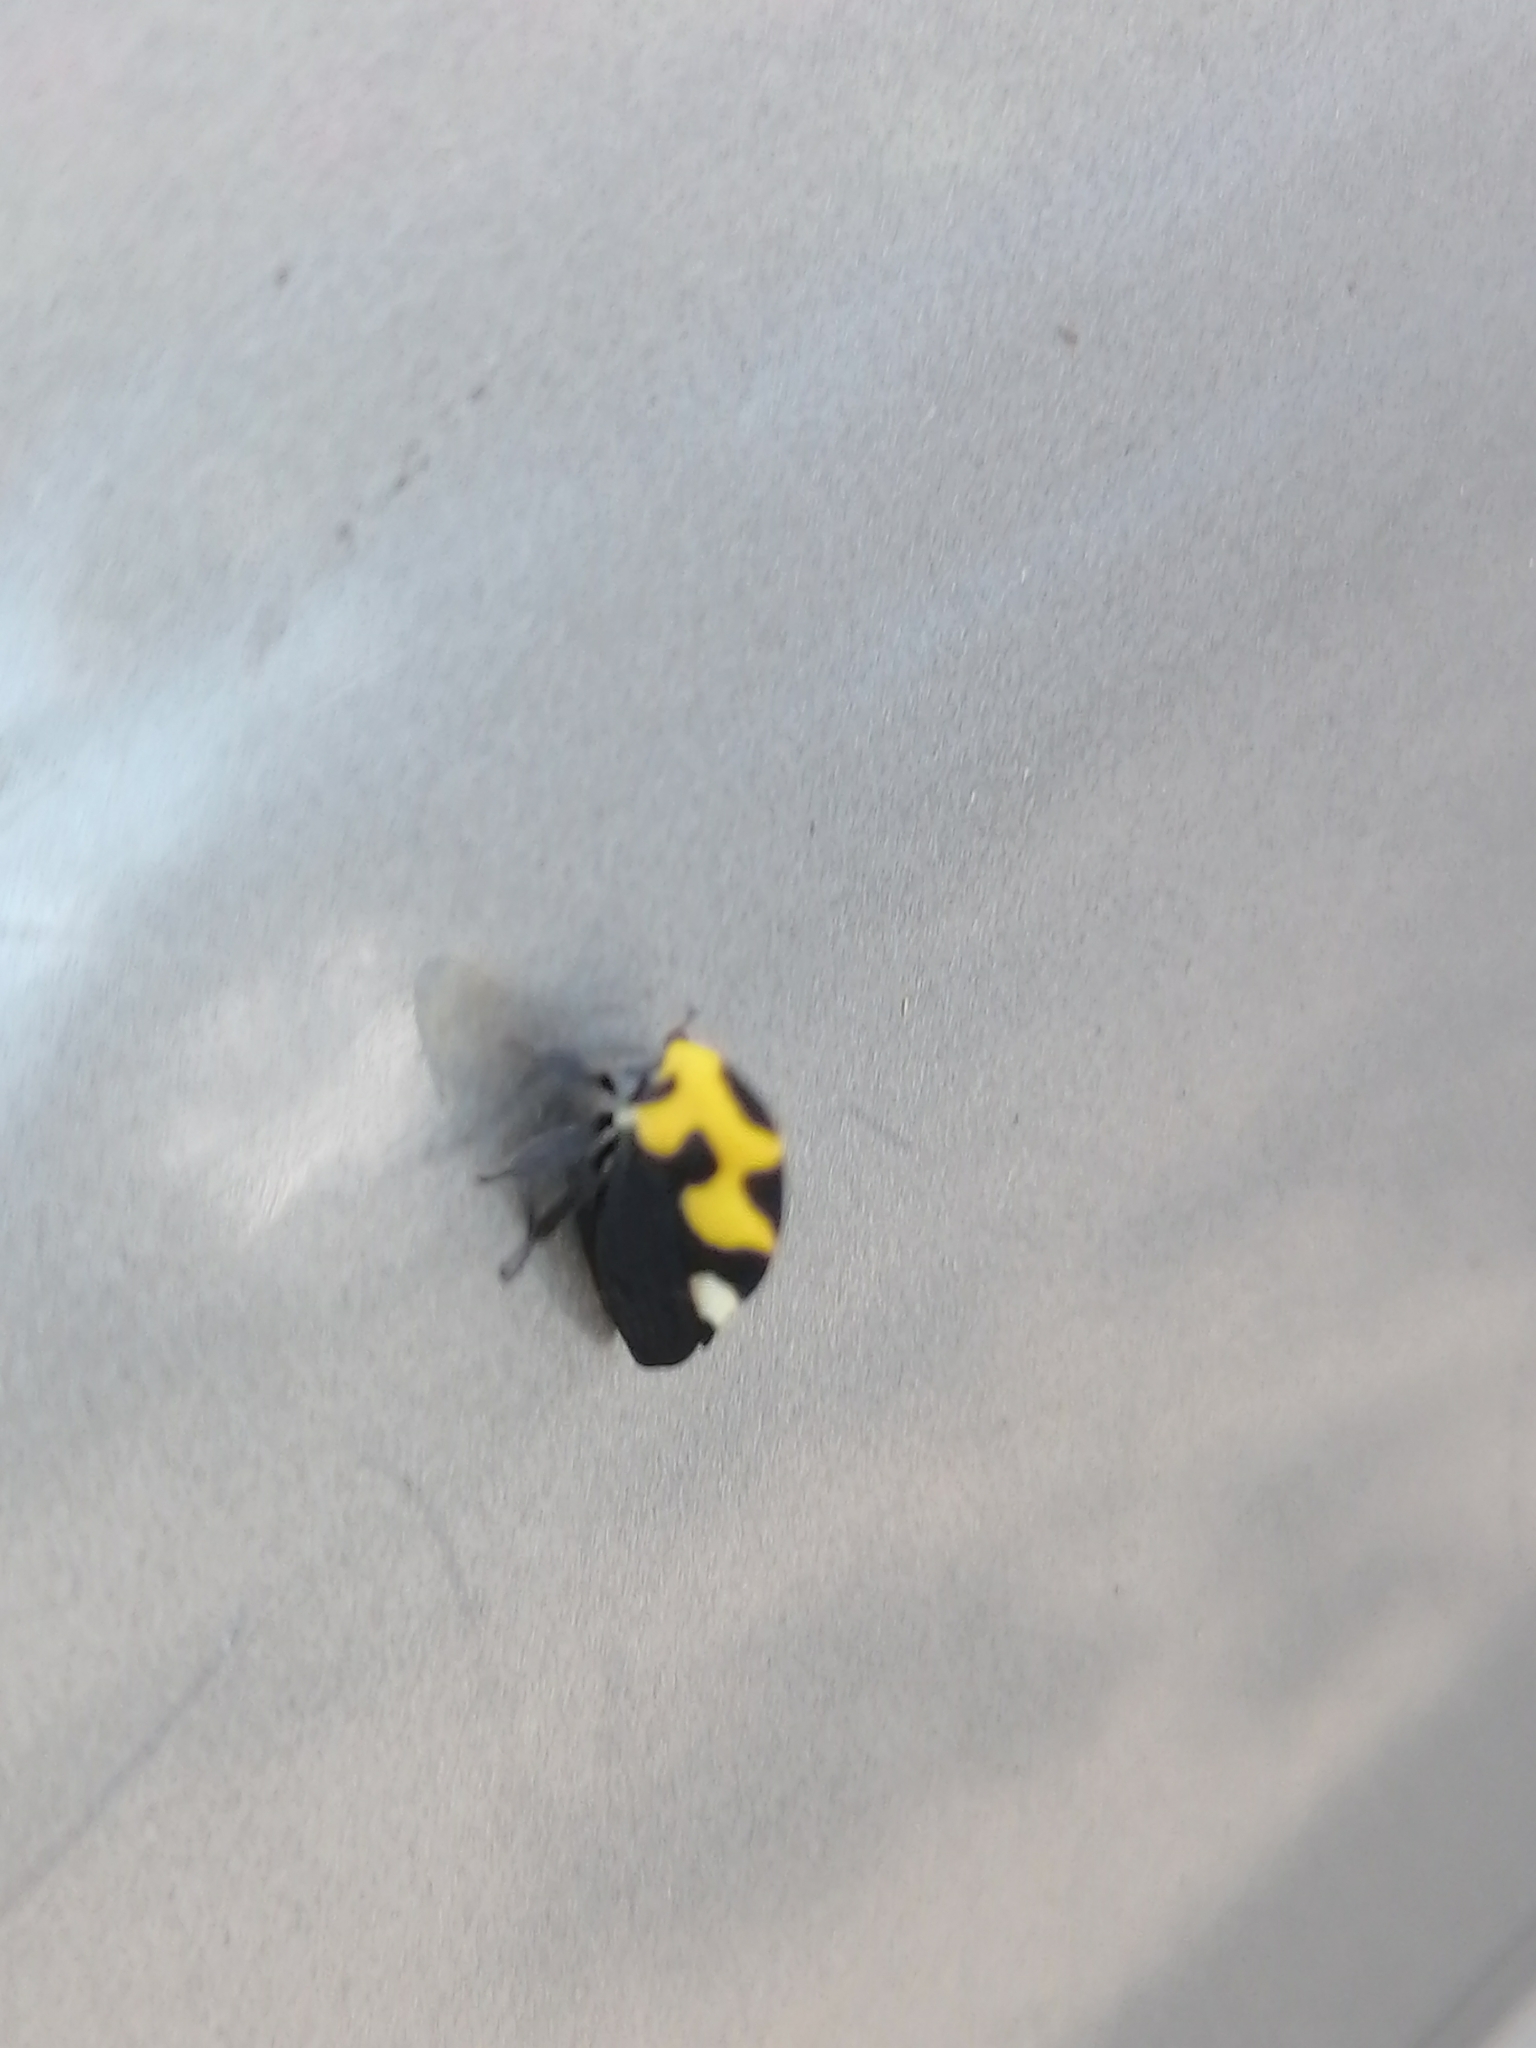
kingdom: Animalia
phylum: Arthropoda
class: Insecta
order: Hemiptera
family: Membracidae
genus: Membracis
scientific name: Membracis mexicana
